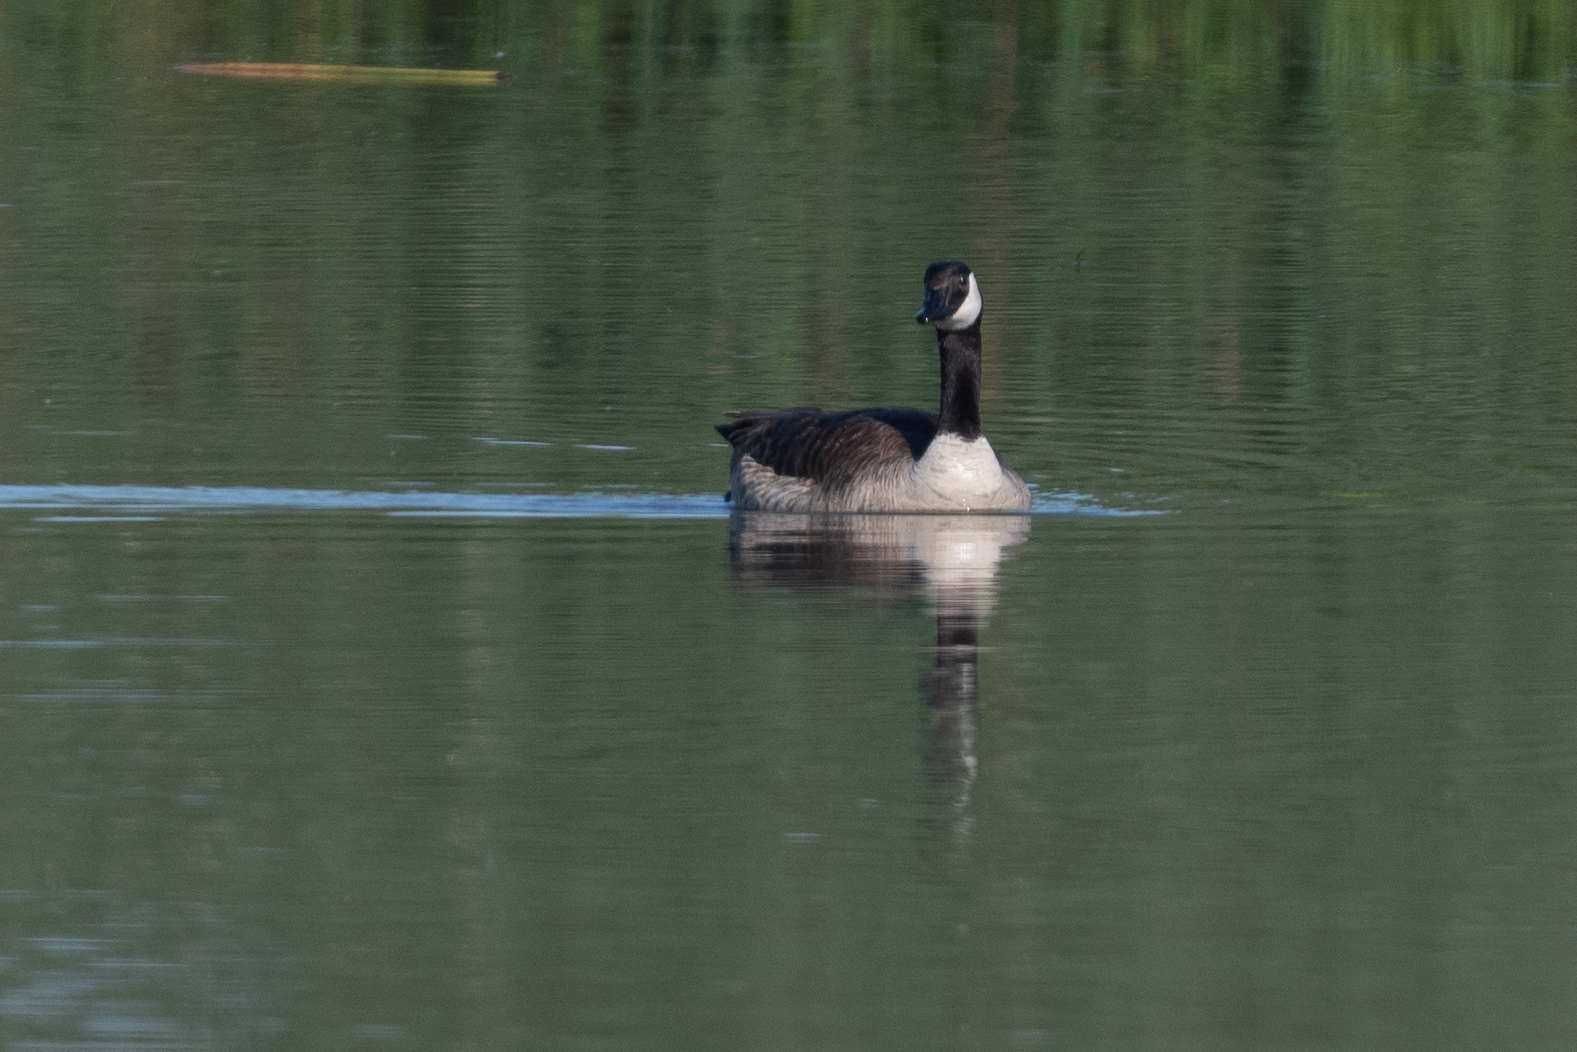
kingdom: Animalia
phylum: Chordata
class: Aves
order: Anseriformes
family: Anatidae
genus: Branta
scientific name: Branta canadensis
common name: Canada goose
